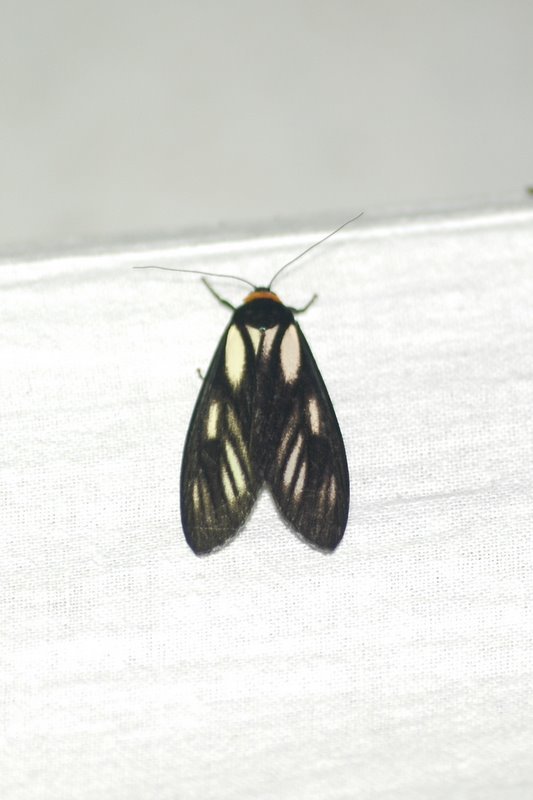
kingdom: Animalia
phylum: Arthropoda
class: Insecta
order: Lepidoptera
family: Erebidae
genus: Macrobrochis
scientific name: Macrobrochis prasena
